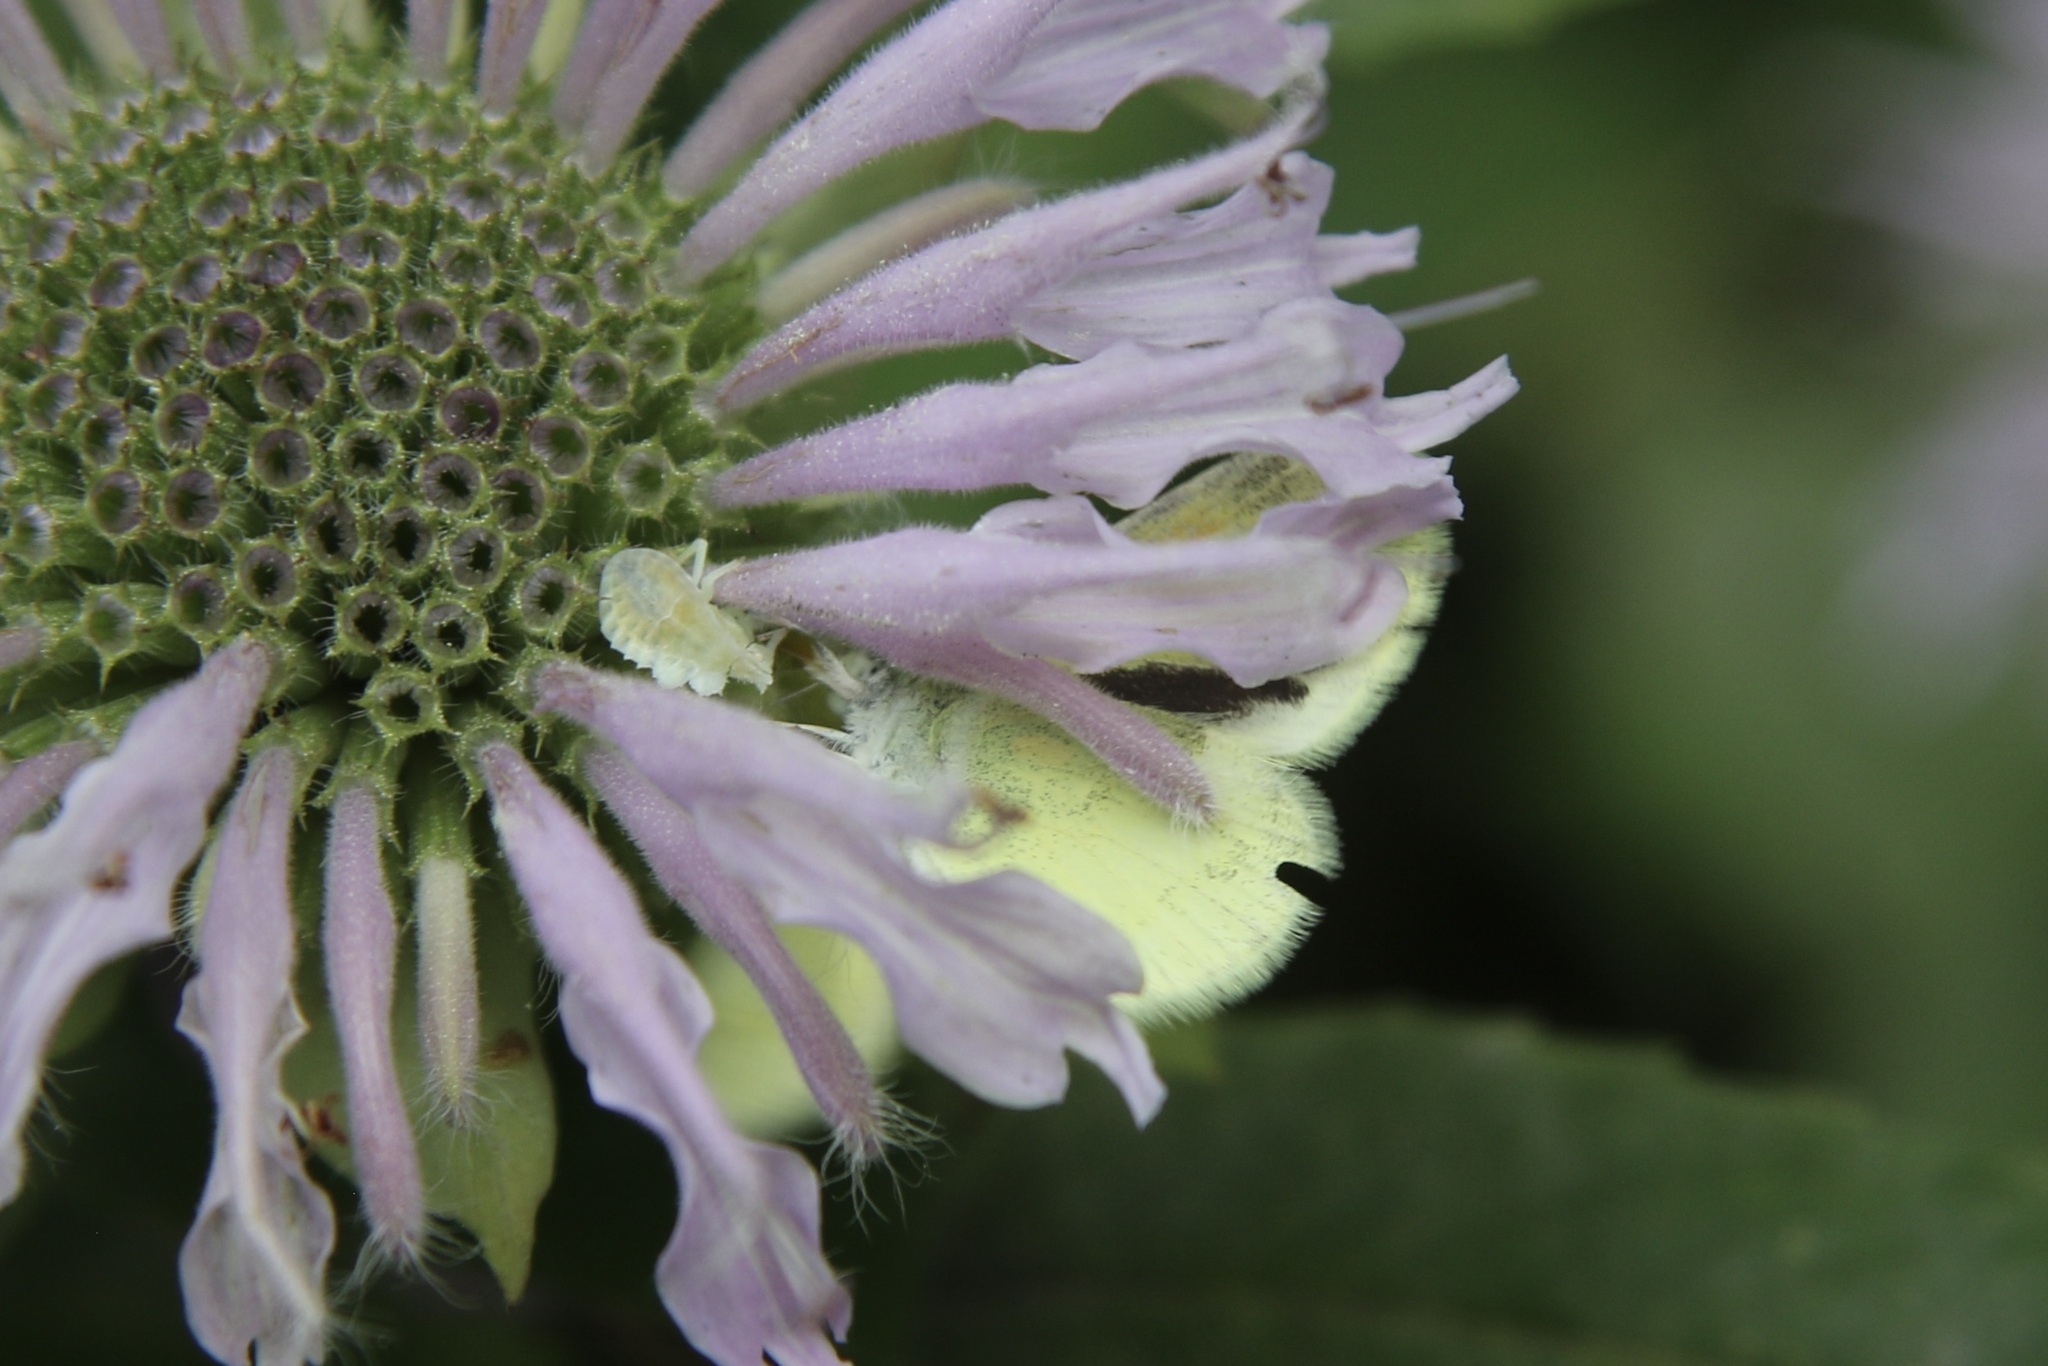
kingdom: Animalia
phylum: Arthropoda
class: Insecta
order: Lepidoptera
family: Pieridae
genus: Nathalis
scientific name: Nathalis iole
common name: Dainty sulphur
